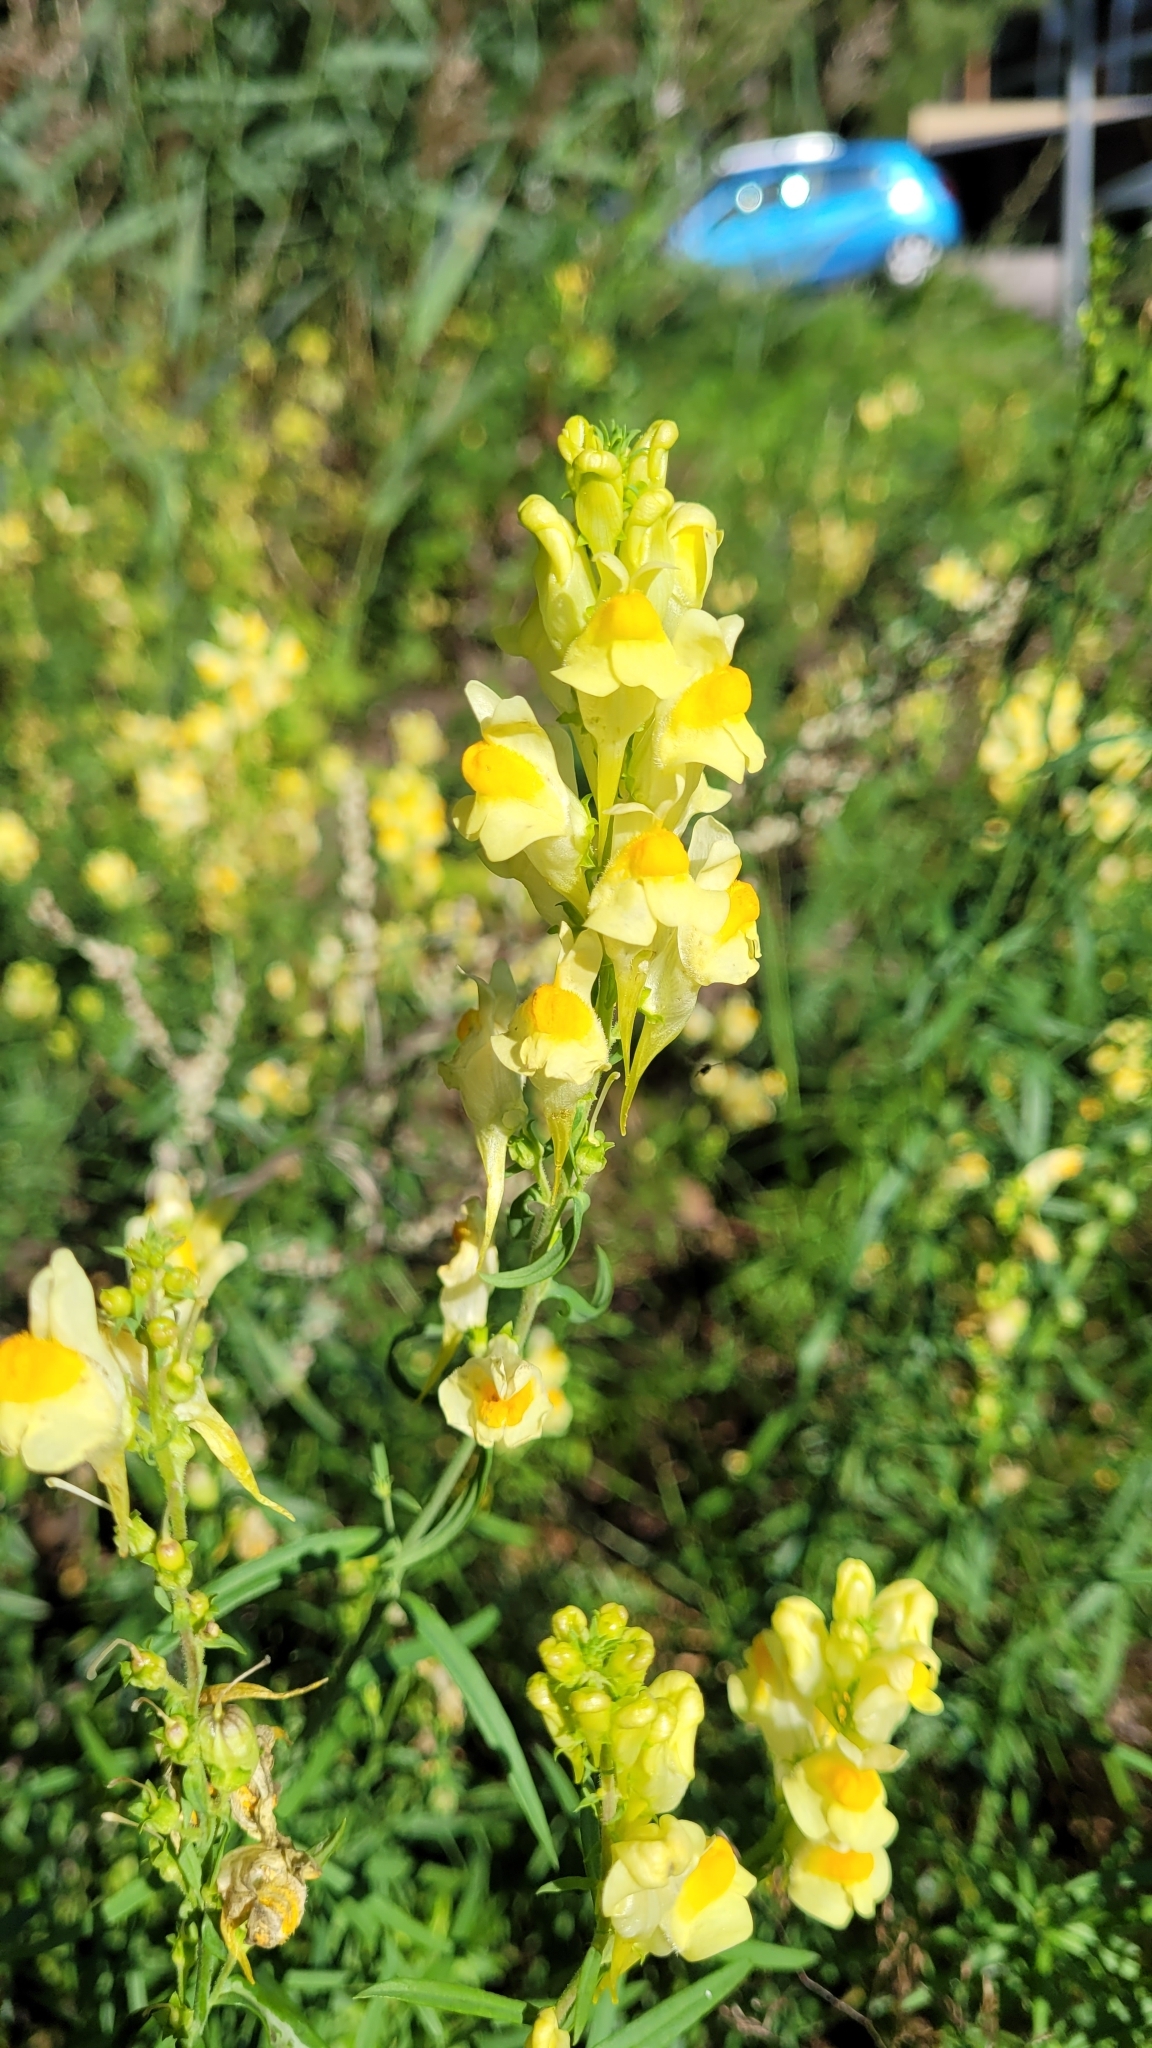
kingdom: Plantae
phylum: Tracheophyta
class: Magnoliopsida
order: Lamiales
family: Plantaginaceae
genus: Linaria
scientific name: Linaria vulgaris
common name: Butter and eggs
